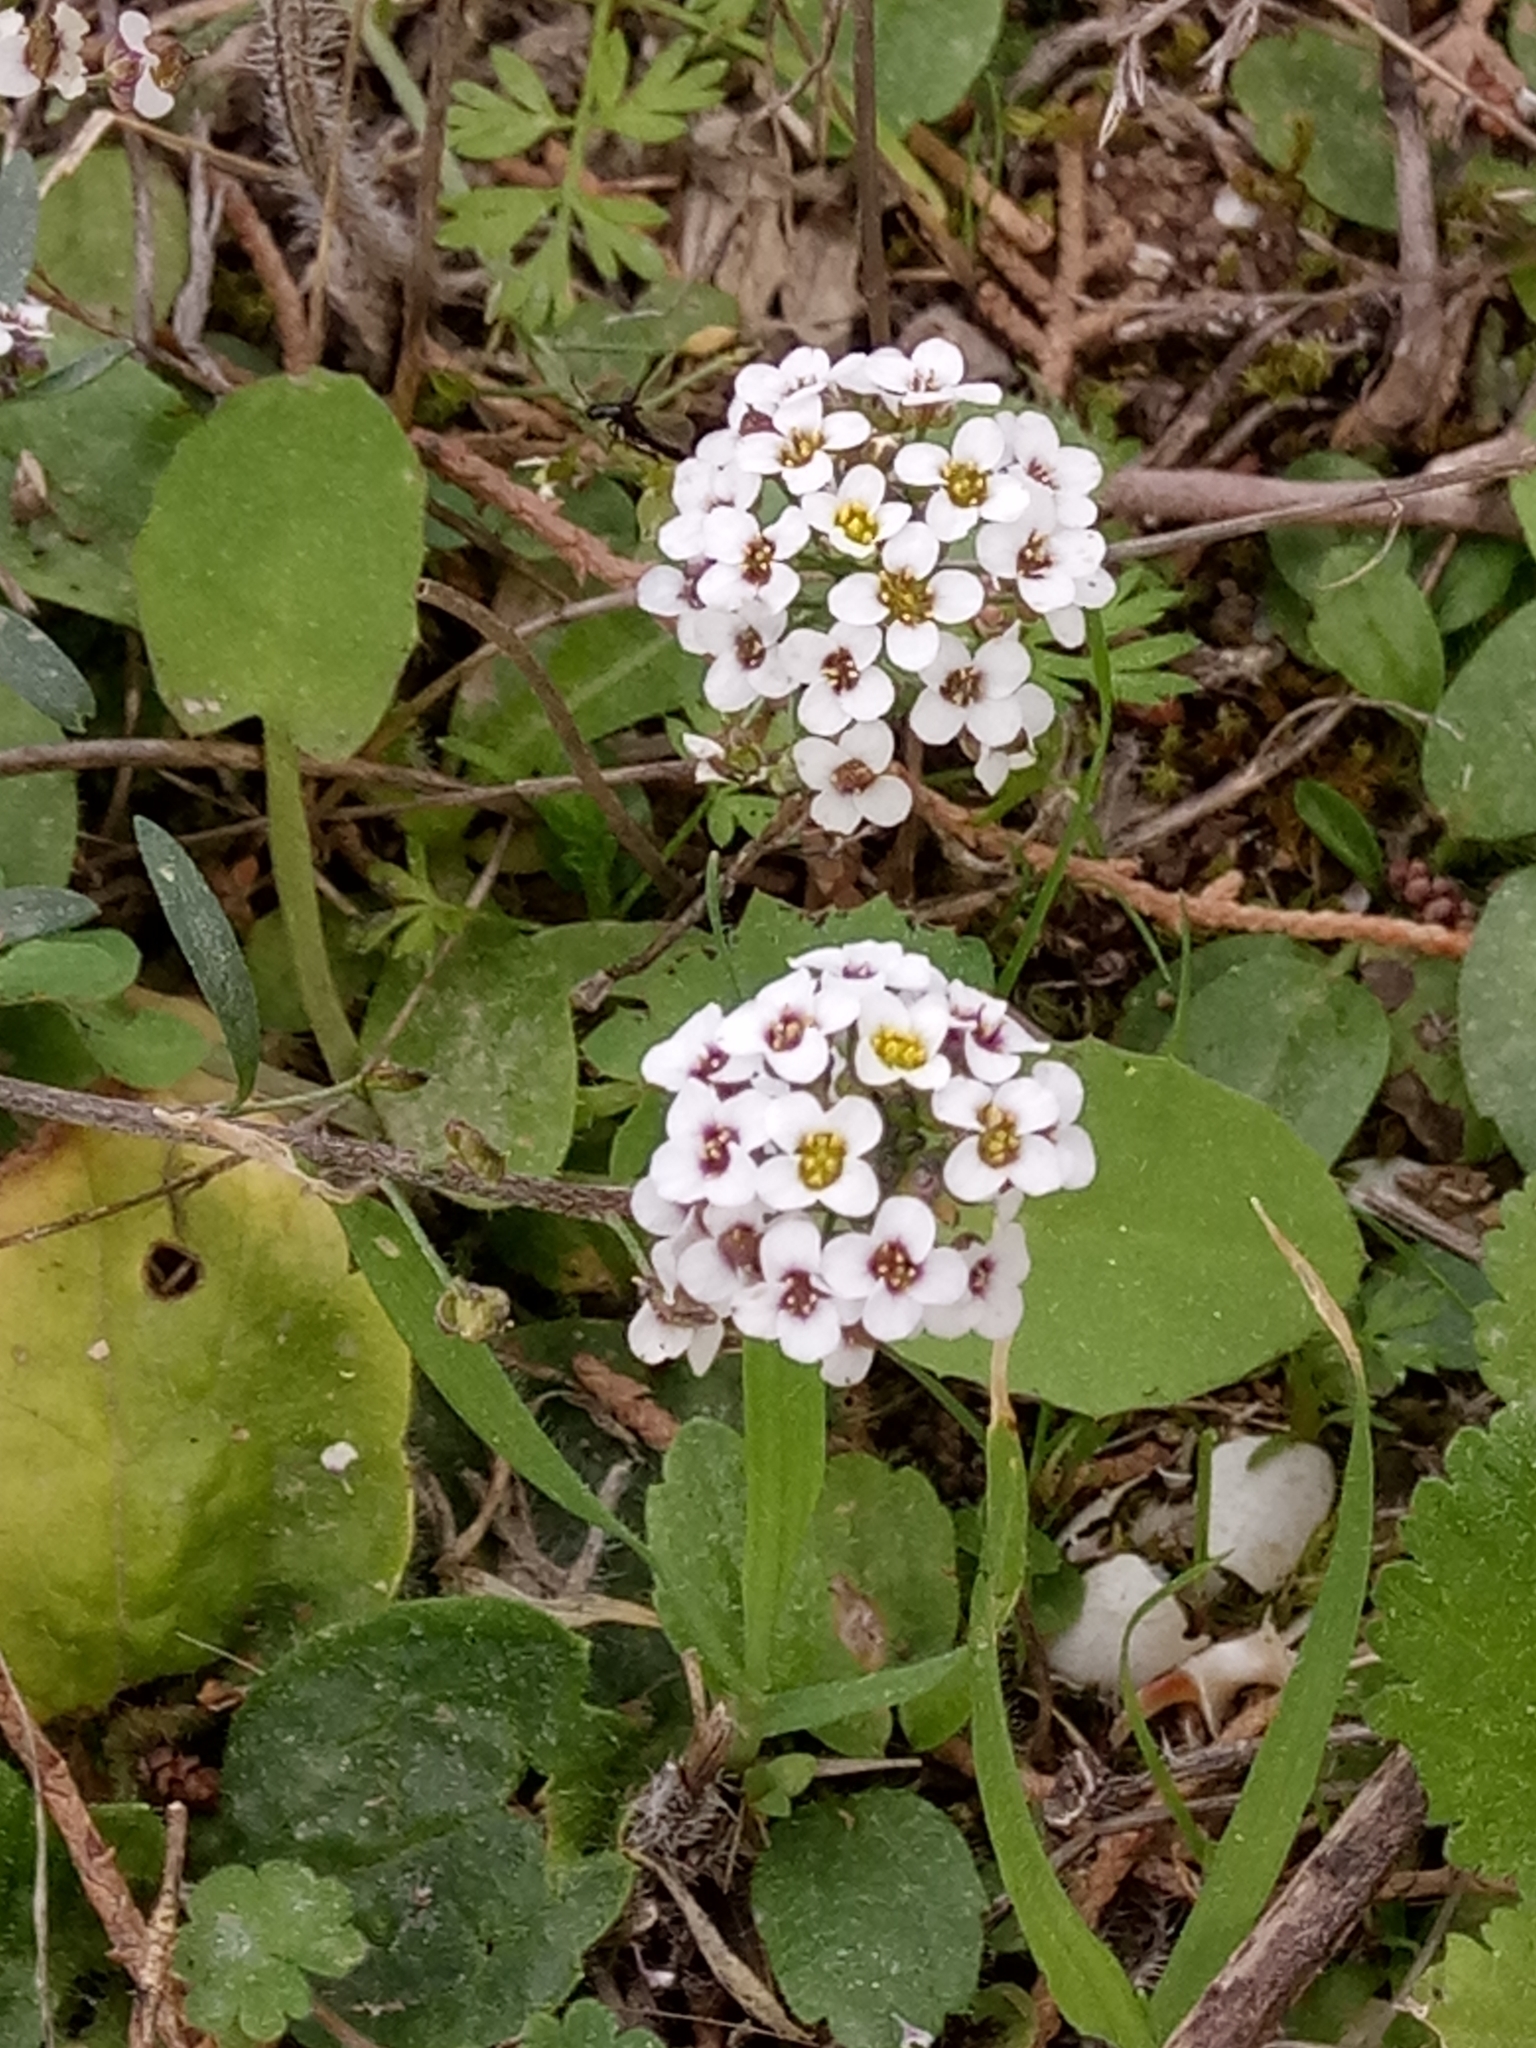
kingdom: Plantae
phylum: Tracheophyta
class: Magnoliopsida
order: Brassicales
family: Brassicaceae
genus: Lobularia
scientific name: Lobularia maritima
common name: Sweet alison
